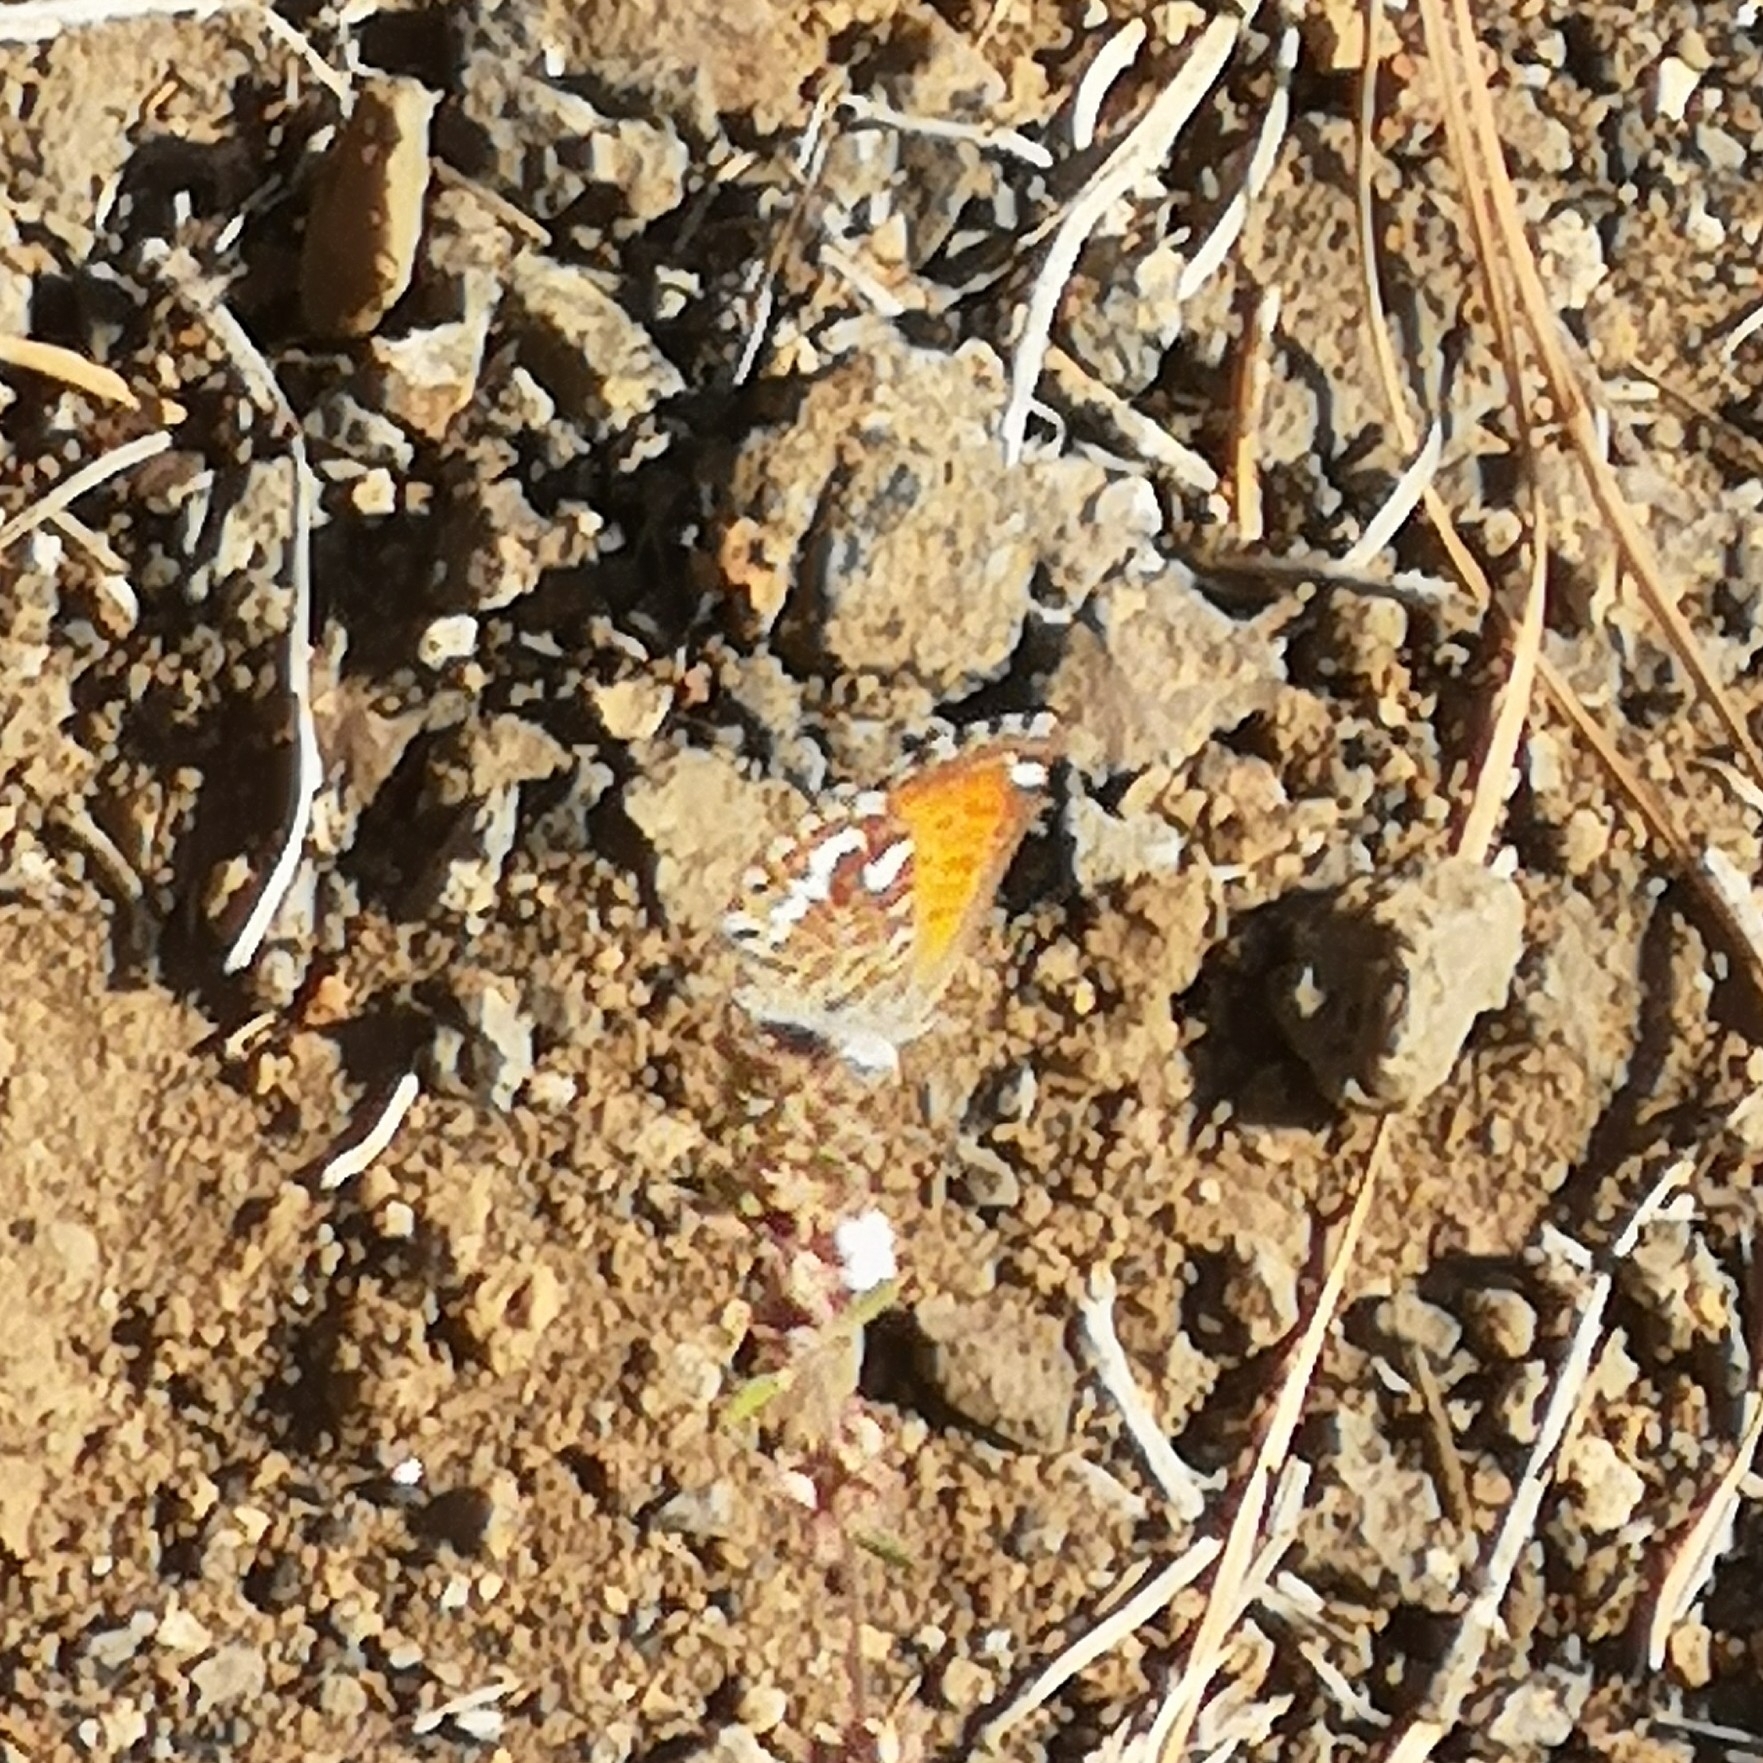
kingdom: Animalia
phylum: Arthropoda
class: Insecta
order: Lepidoptera
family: Lycaenidae
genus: Cyclyrius
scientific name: Cyclyrius webbianus
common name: Canary blue
